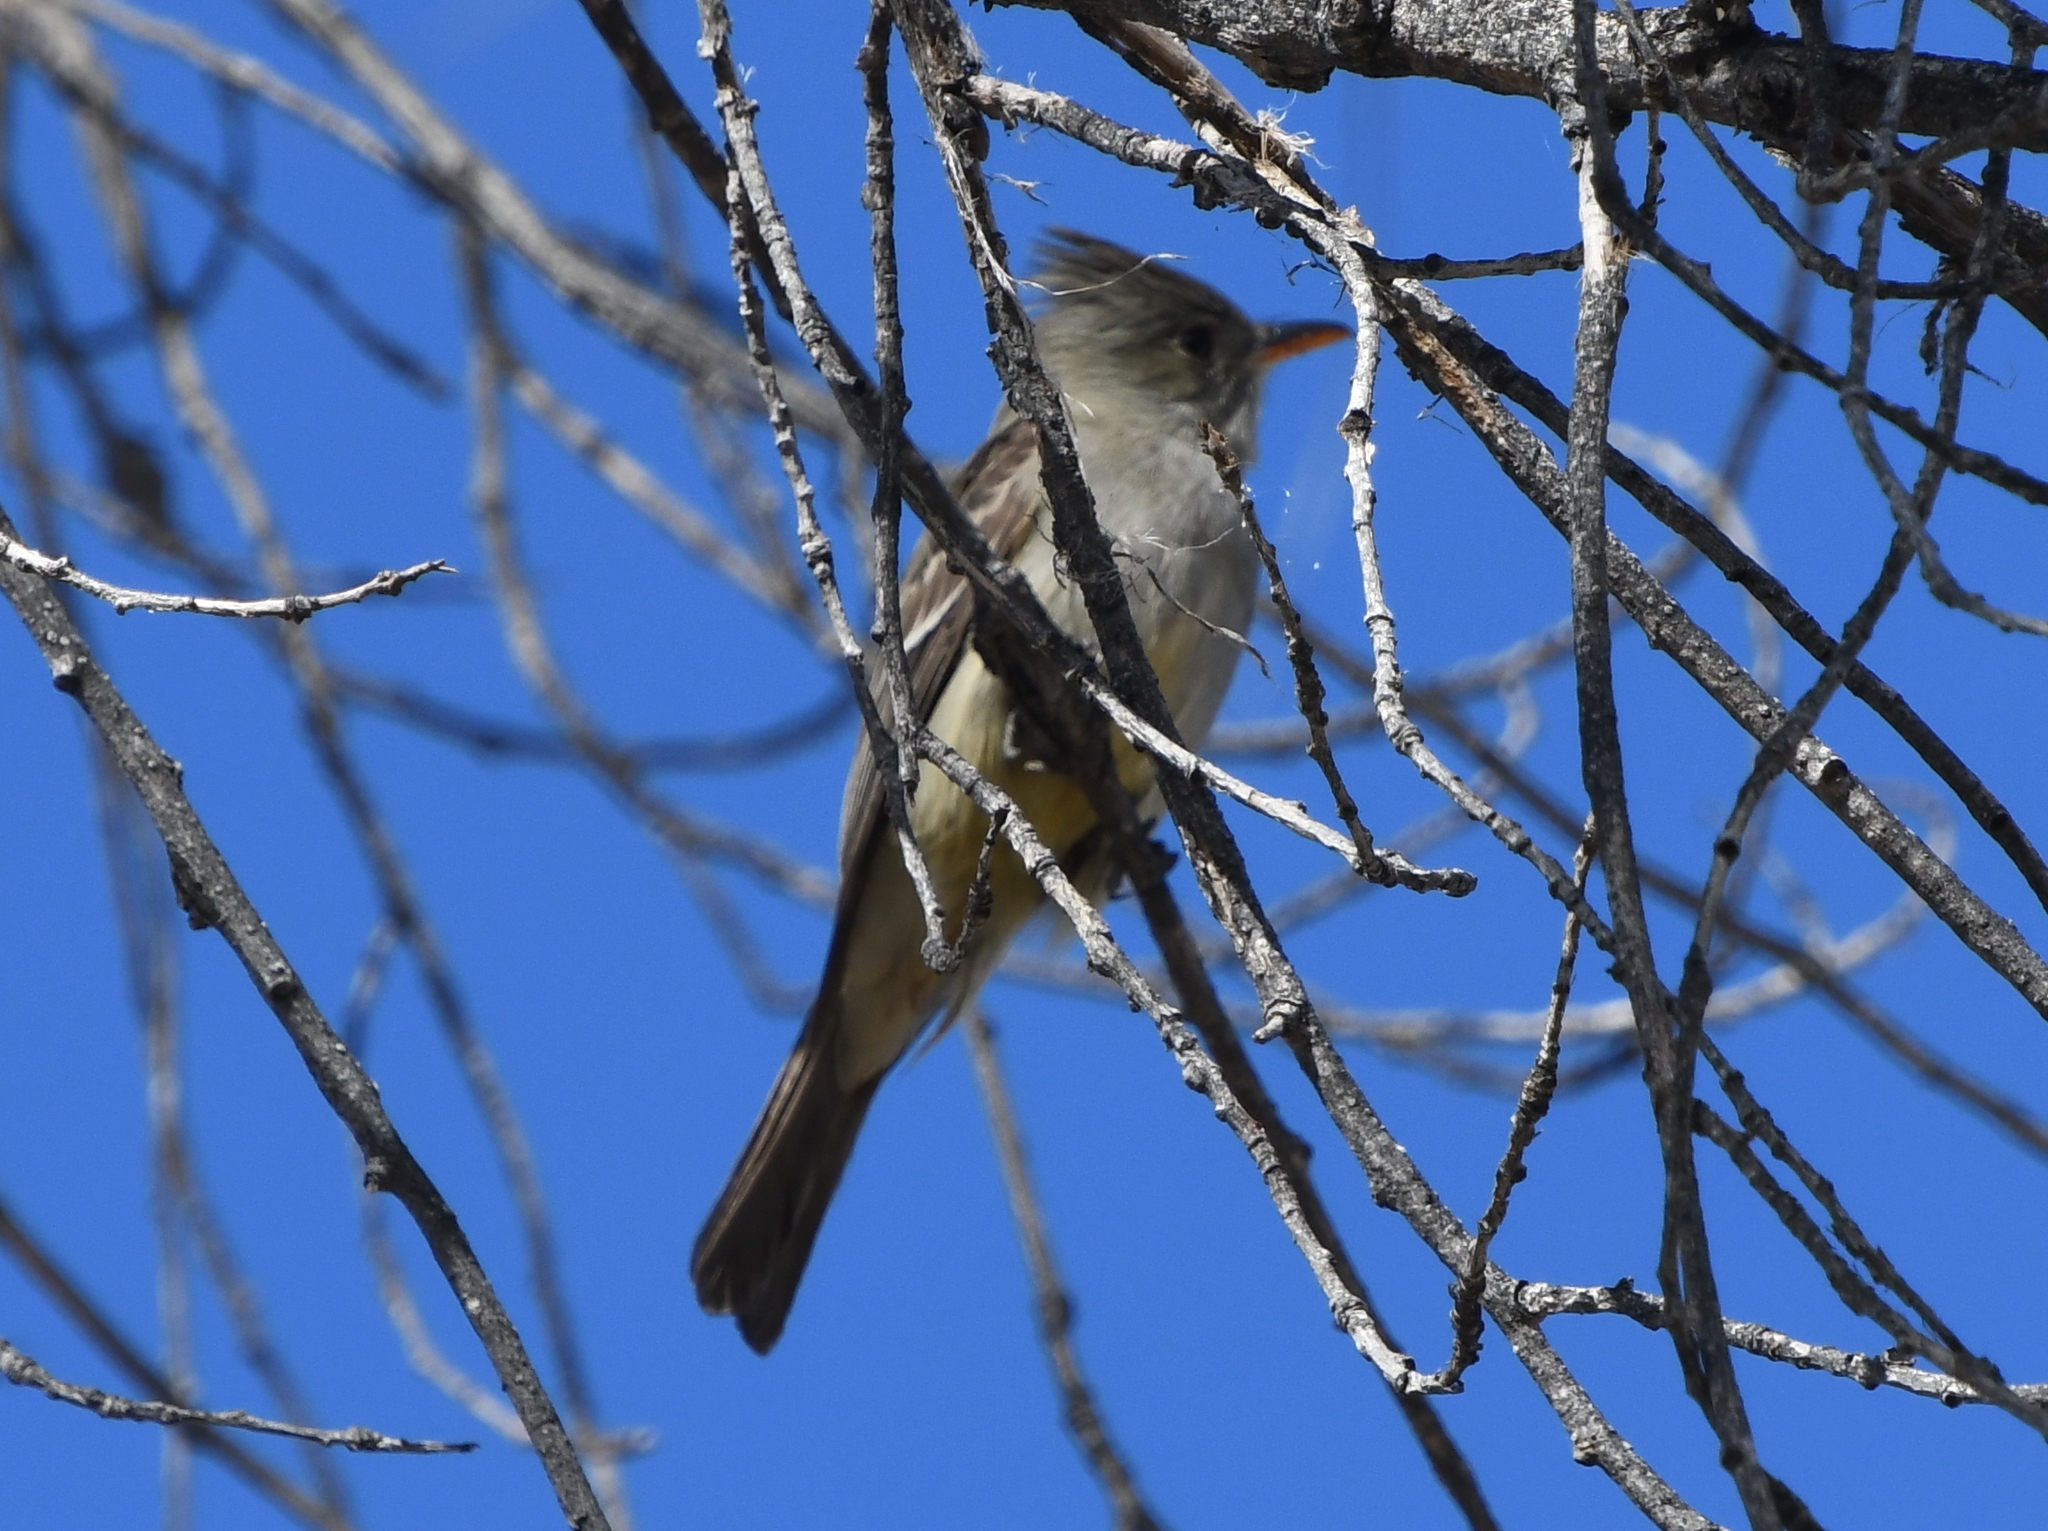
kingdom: Animalia
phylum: Chordata
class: Aves
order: Passeriformes
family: Tyrannidae
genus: Contopus
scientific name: Contopus pertinax
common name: Greater pewee
